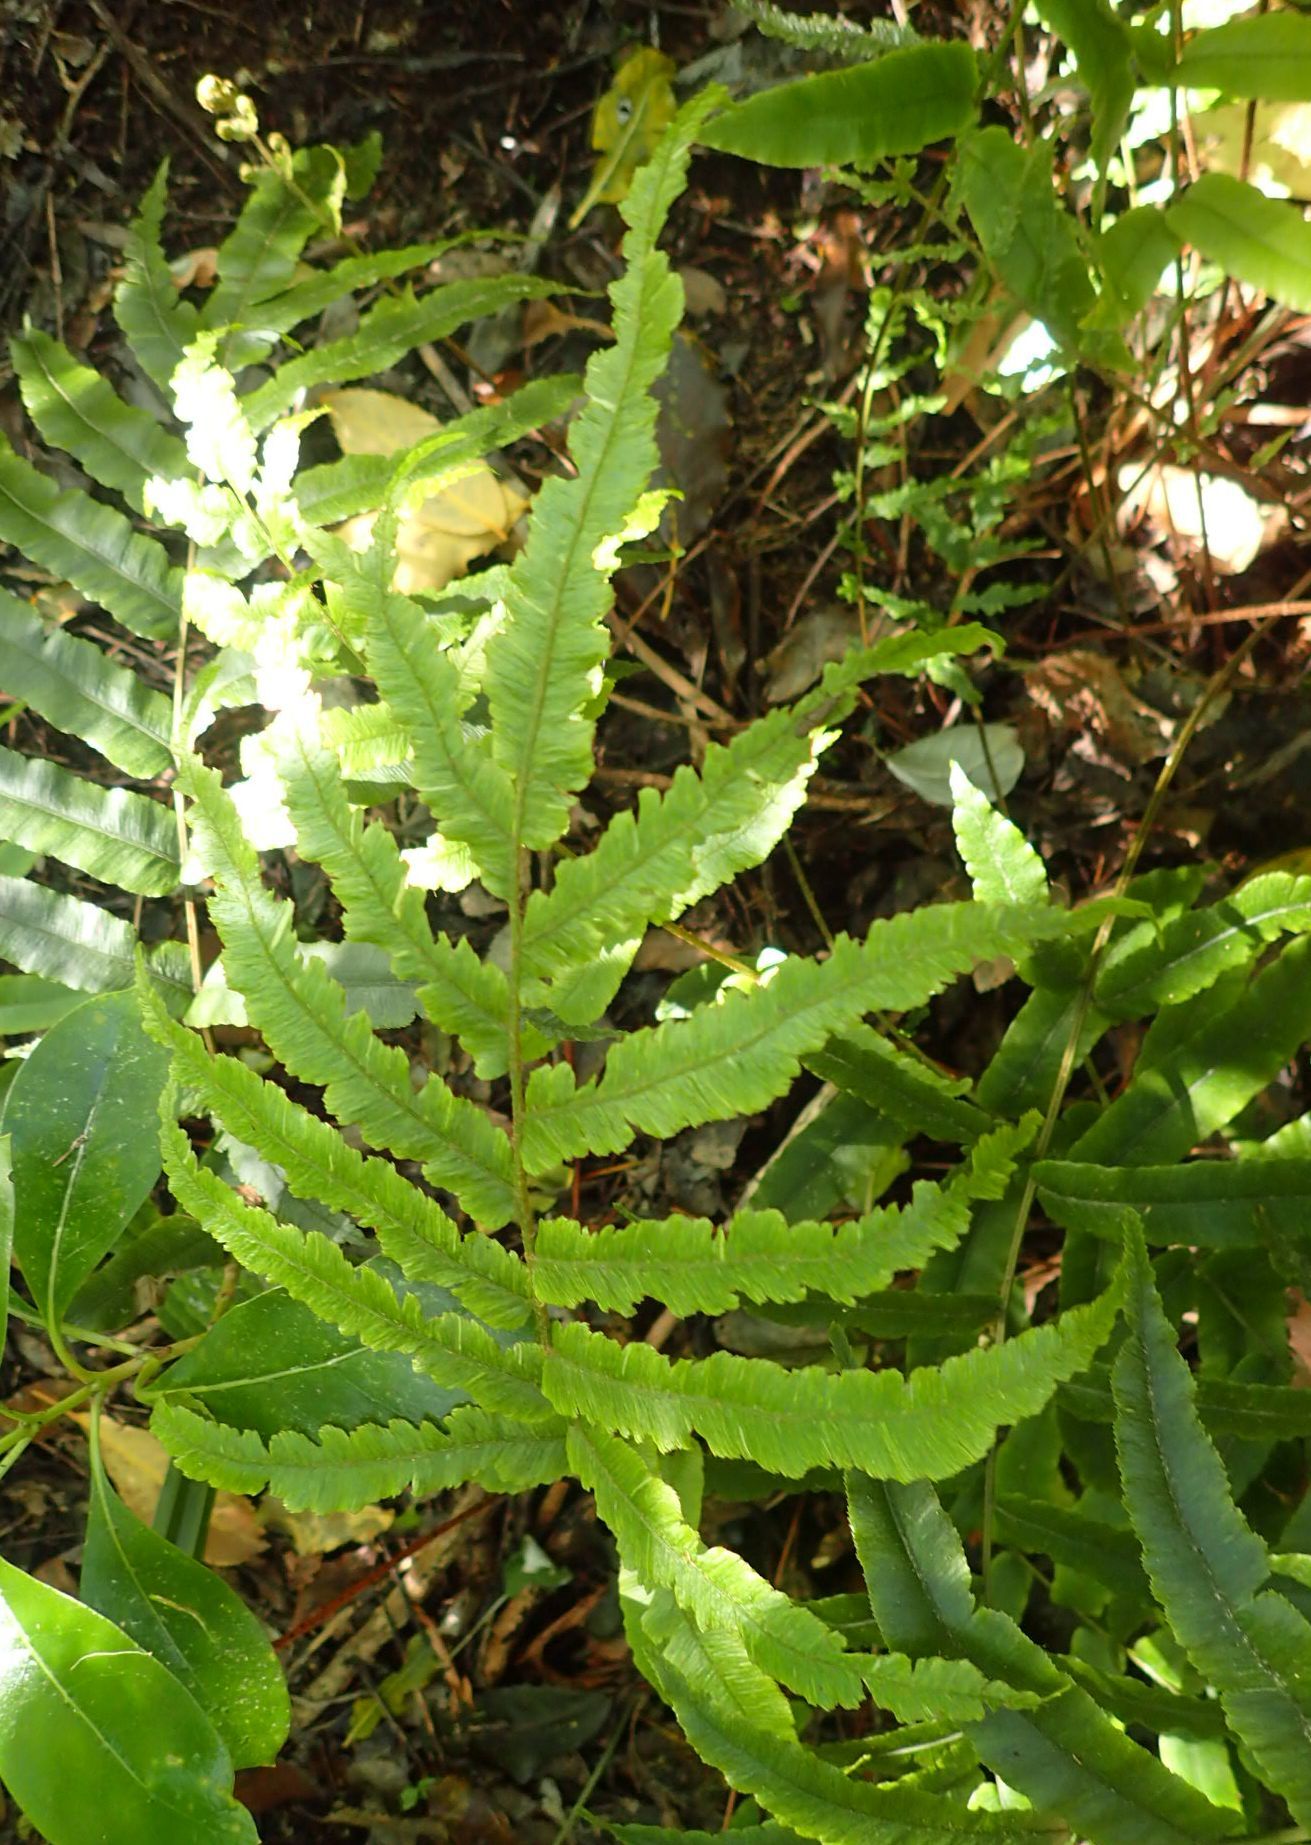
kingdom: Plantae
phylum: Tracheophyta
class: Polypodiopsida
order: Polypodiales
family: Blechnaceae
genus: Parablechnum
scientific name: Parablechnum procerum
